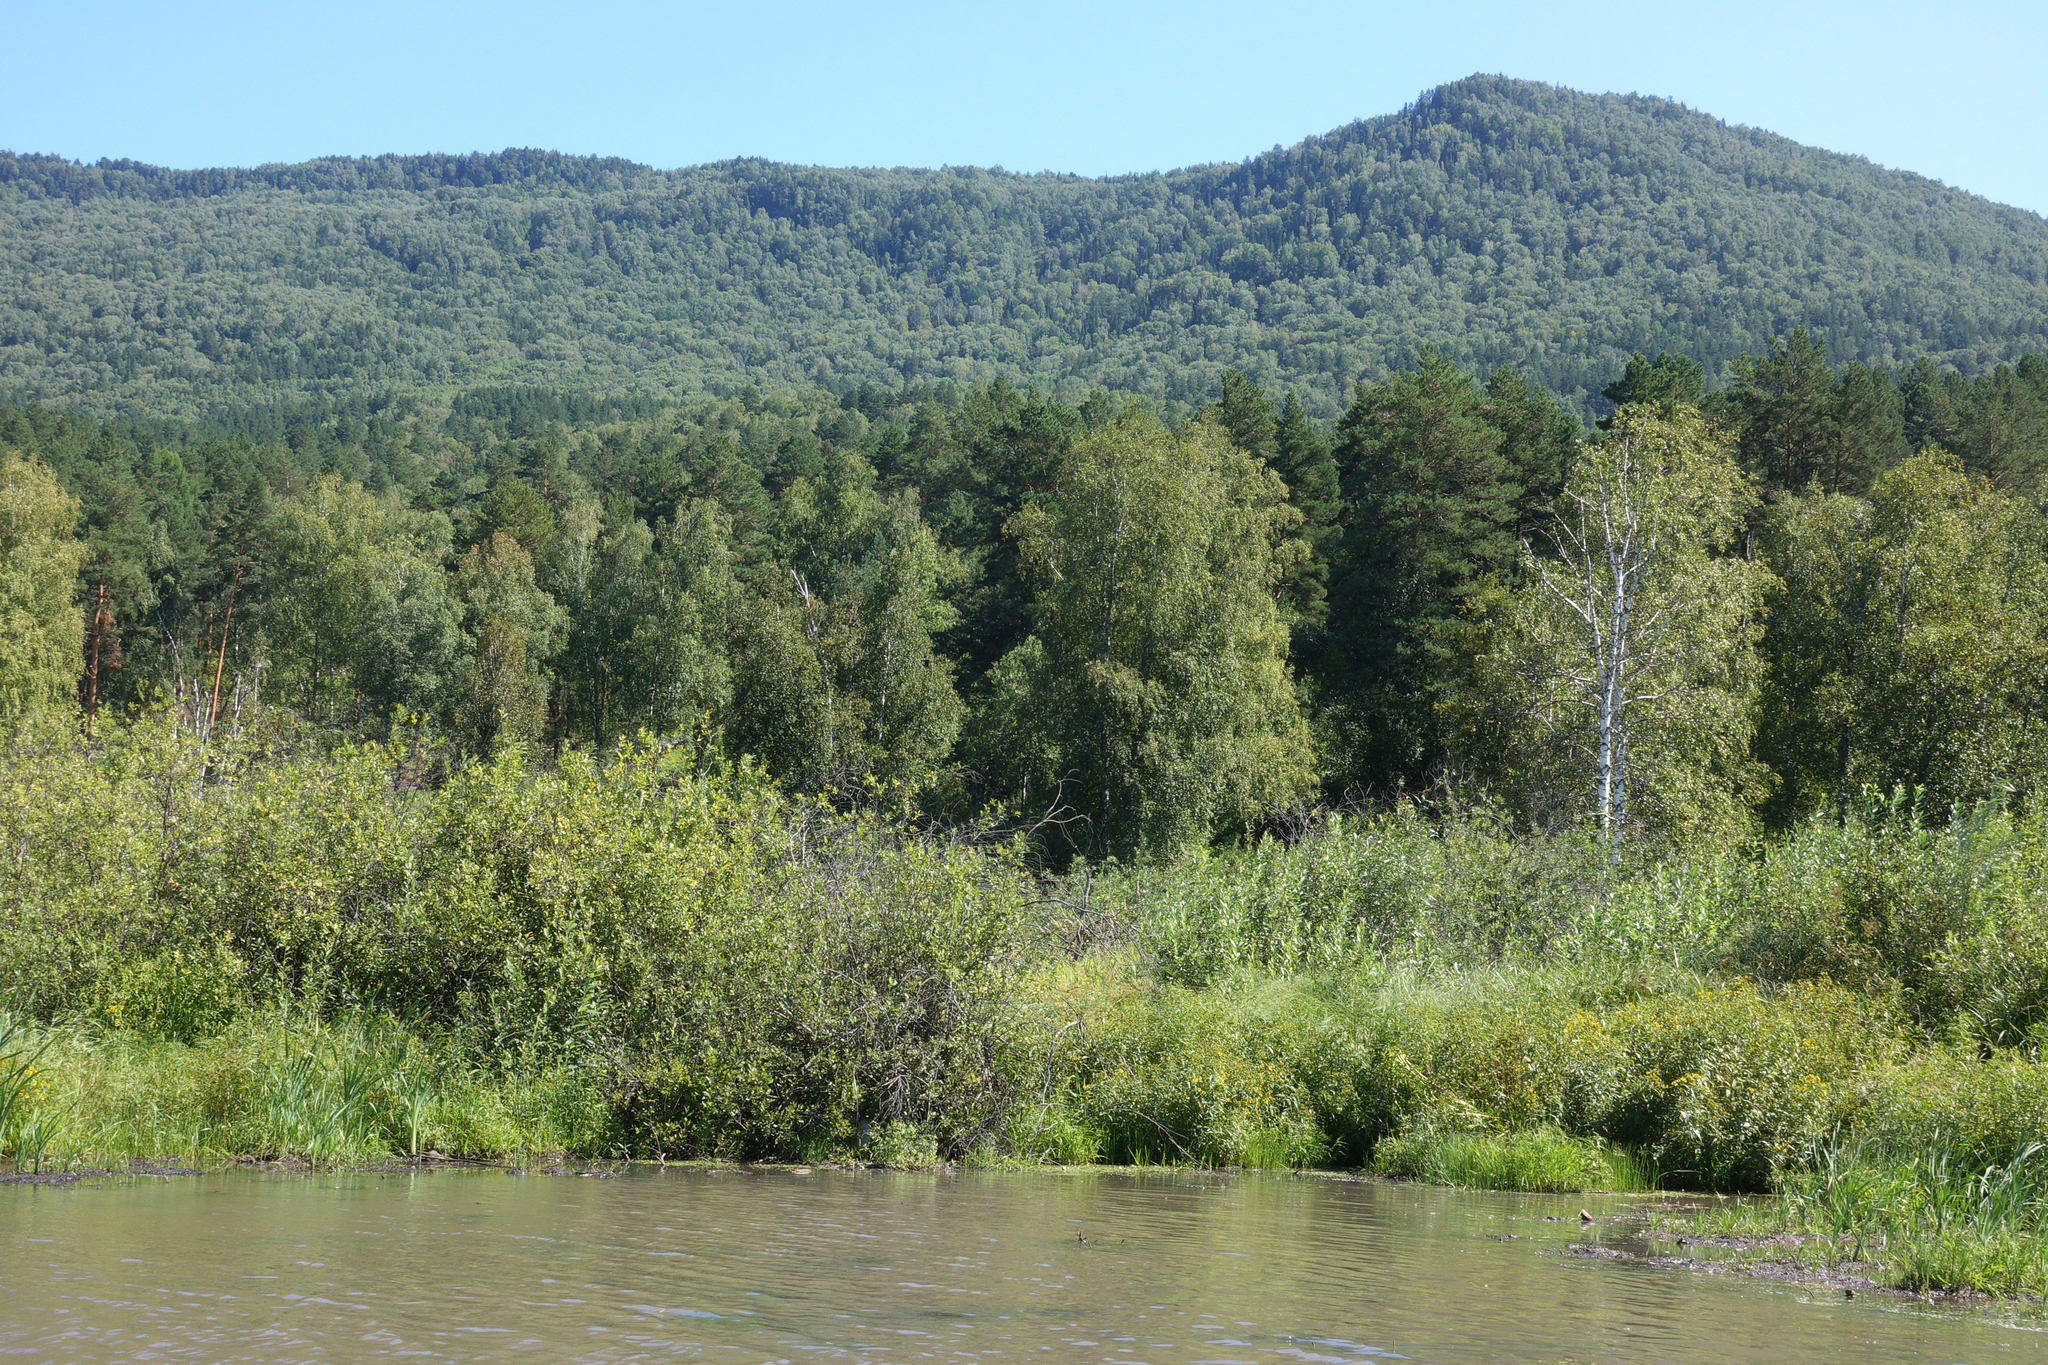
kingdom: Plantae
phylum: Tracheophyta
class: Pinopsida
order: Pinales
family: Pinaceae
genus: Pinus
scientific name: Pinus sylvestris
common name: Scots pine
